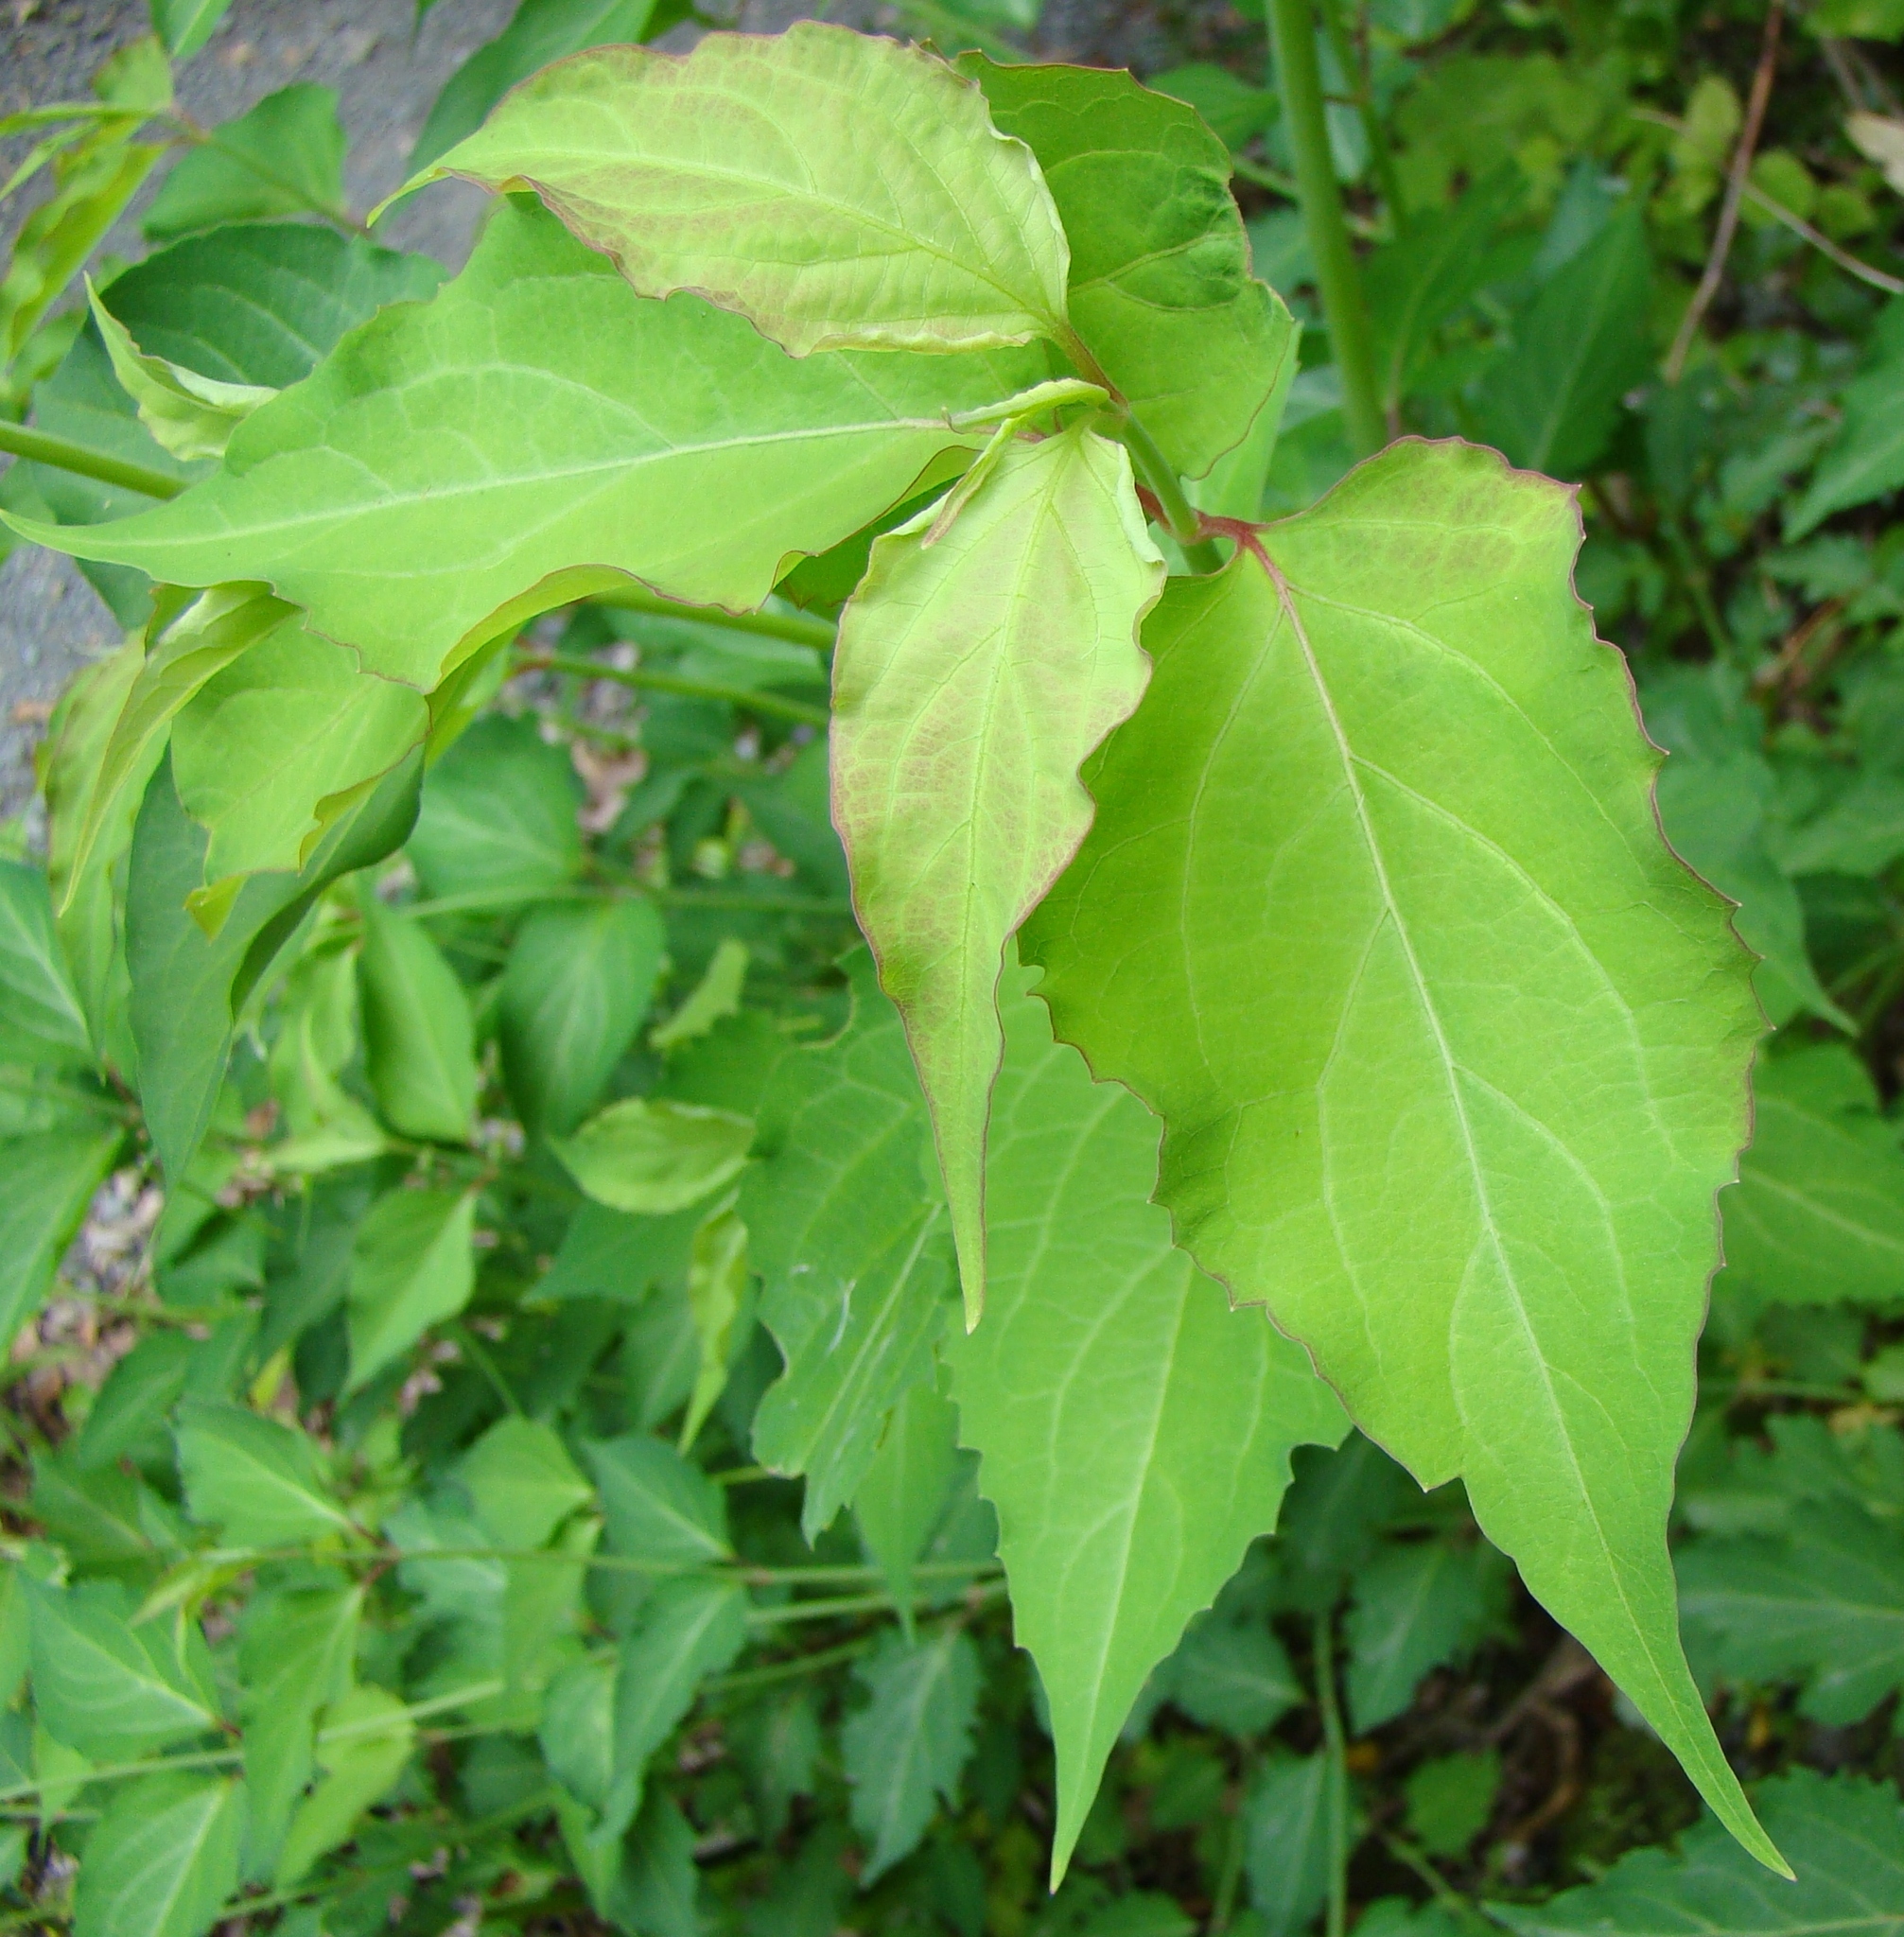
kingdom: Plantae
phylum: Tracheophyta
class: Magnoliopsida
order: Dipsacales
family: Caprifoliaceae
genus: Leycesteria
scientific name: Leycesteria formosa
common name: Himalayan honeysuckle
